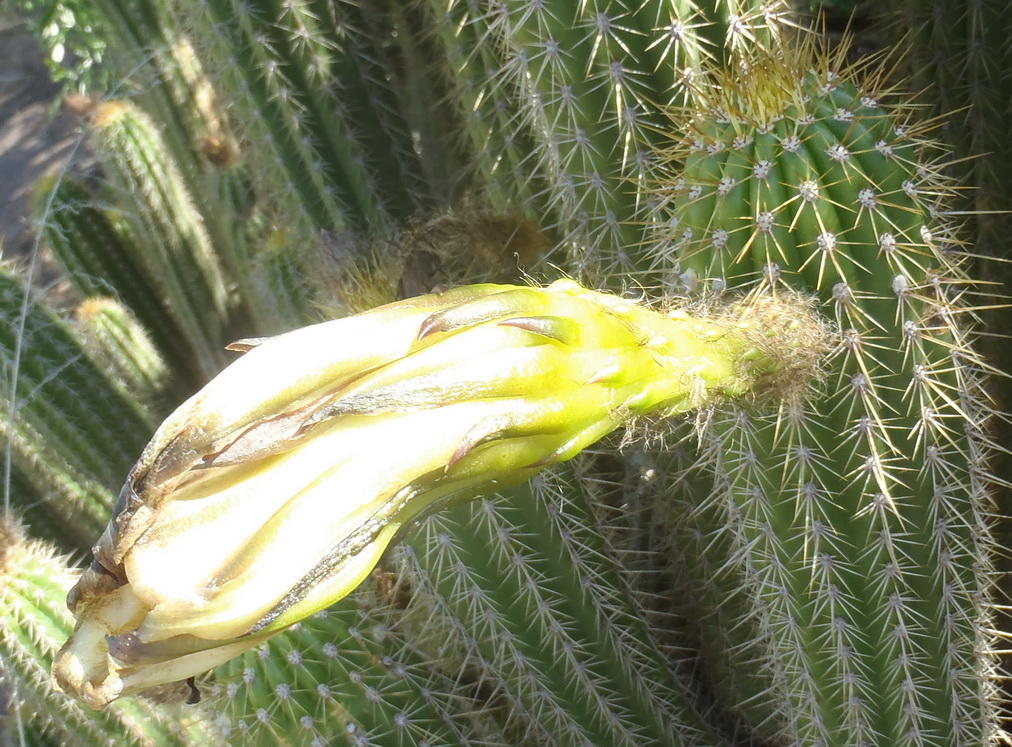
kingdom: Plantae
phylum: Tracheophyta
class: Magnoliopsida
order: Caryophyllales
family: Cactaceae
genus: Soehrensia
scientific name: Soehrensia spachiana
